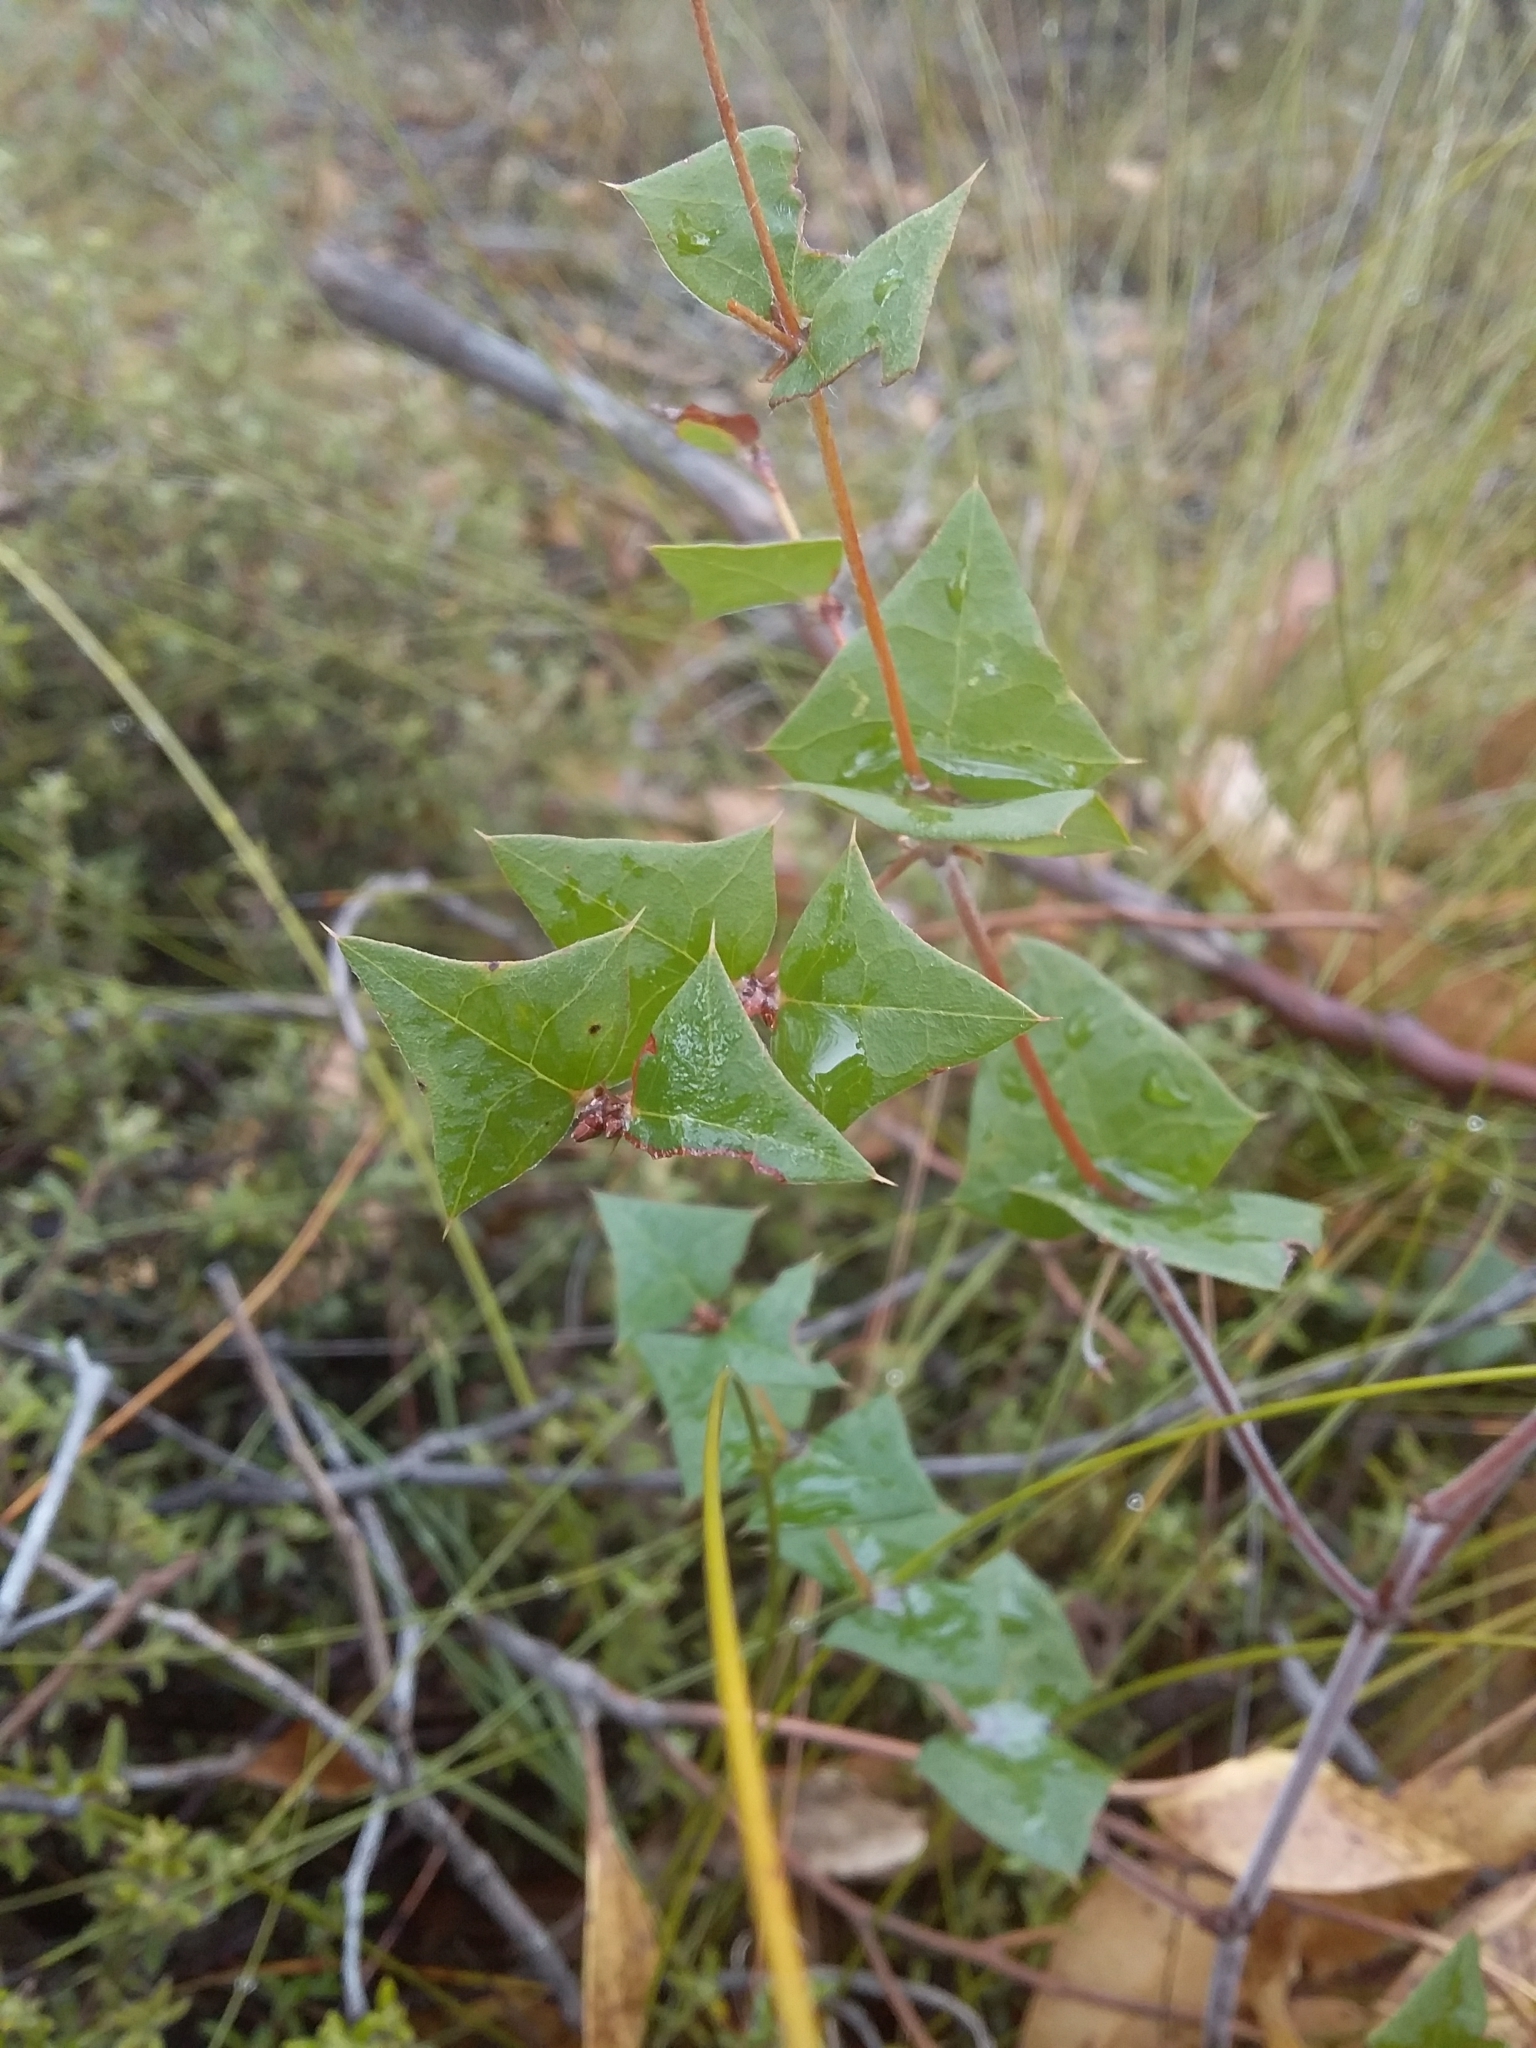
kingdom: Plantae
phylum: Tracheophyta
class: Magnoliopsida
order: Fabales
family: Fabaceae
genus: Platylobium
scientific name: Platylobium obtusangulum
